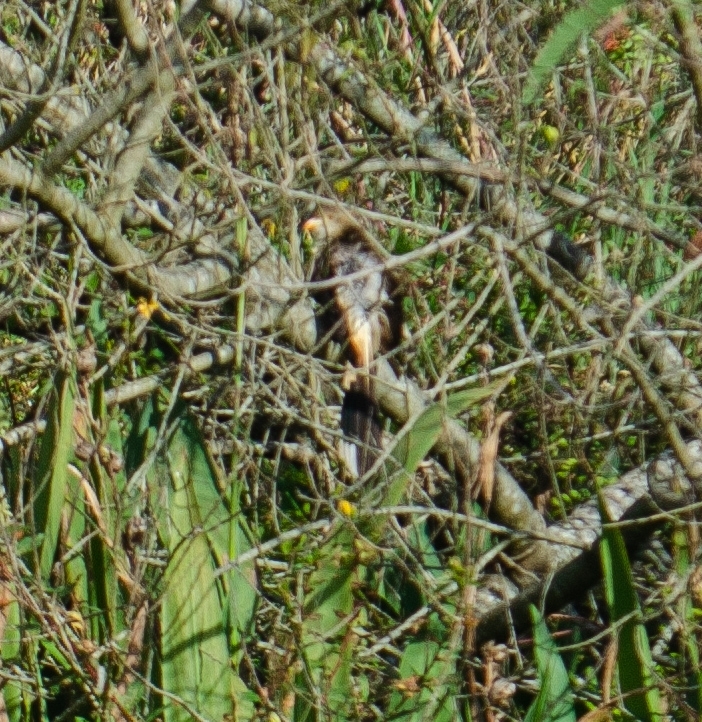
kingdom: Animalia
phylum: Chordata
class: Aves
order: Cuculiformes
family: Cuculidae
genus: Guira
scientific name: Guira guira
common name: Guira cuckoo
